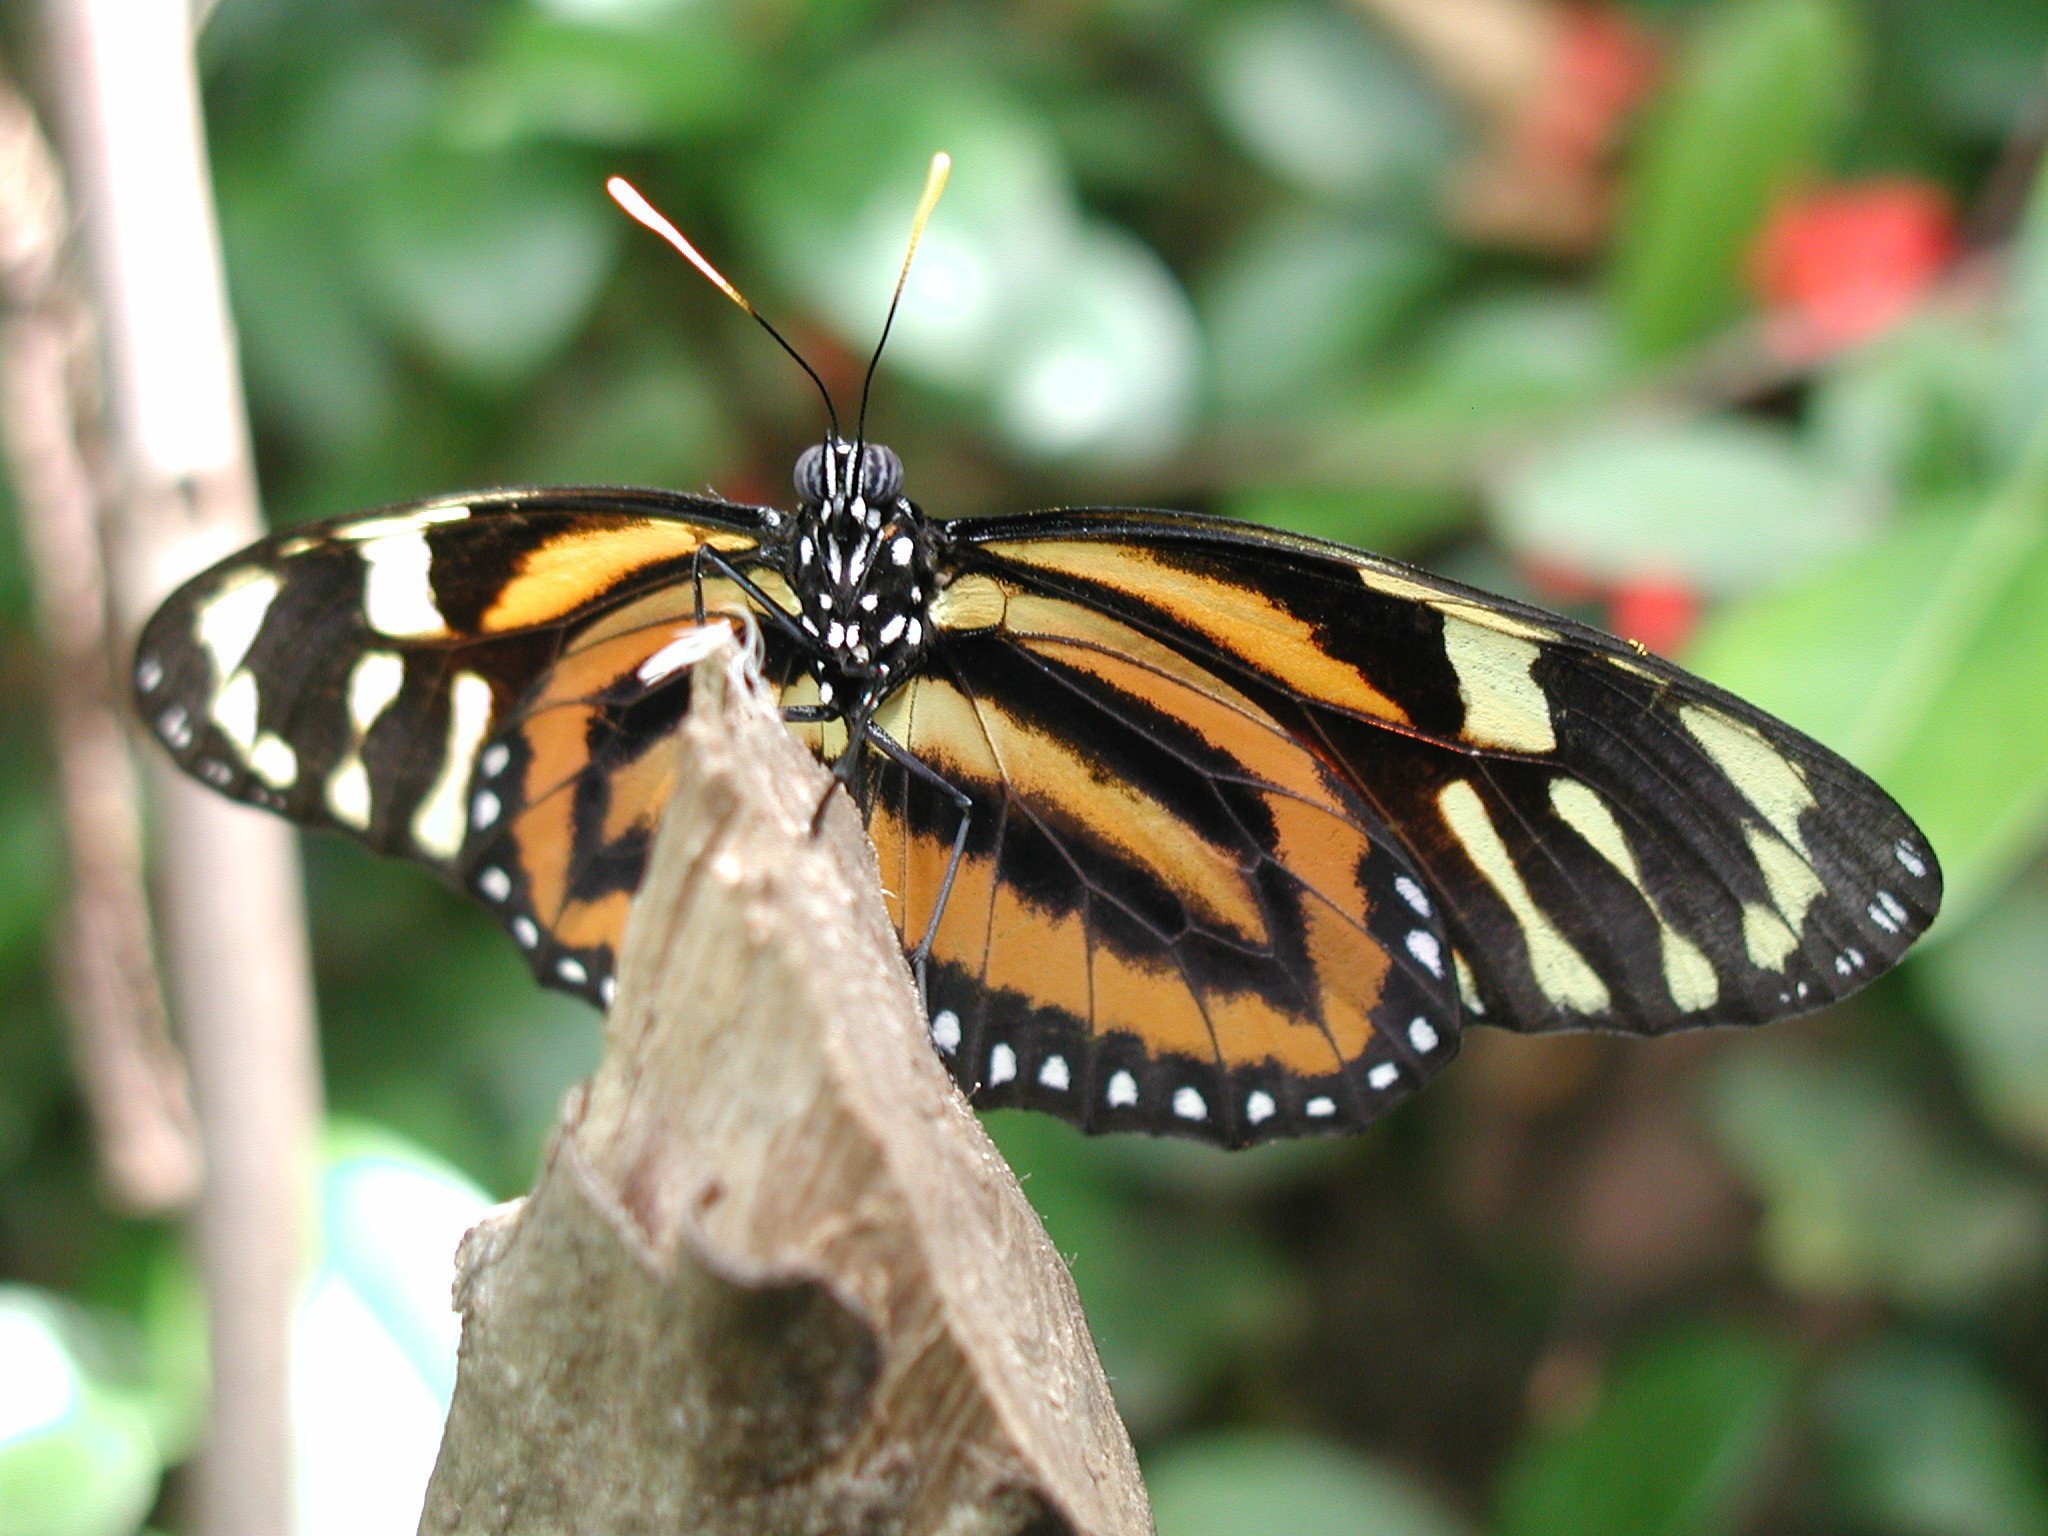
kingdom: Animalia
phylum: Arthropoda
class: Insecta
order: Lepidoptera
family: Nymphalidae
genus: Lycorea
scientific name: Lycorea cleobaea
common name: Tiger mimic-queen
